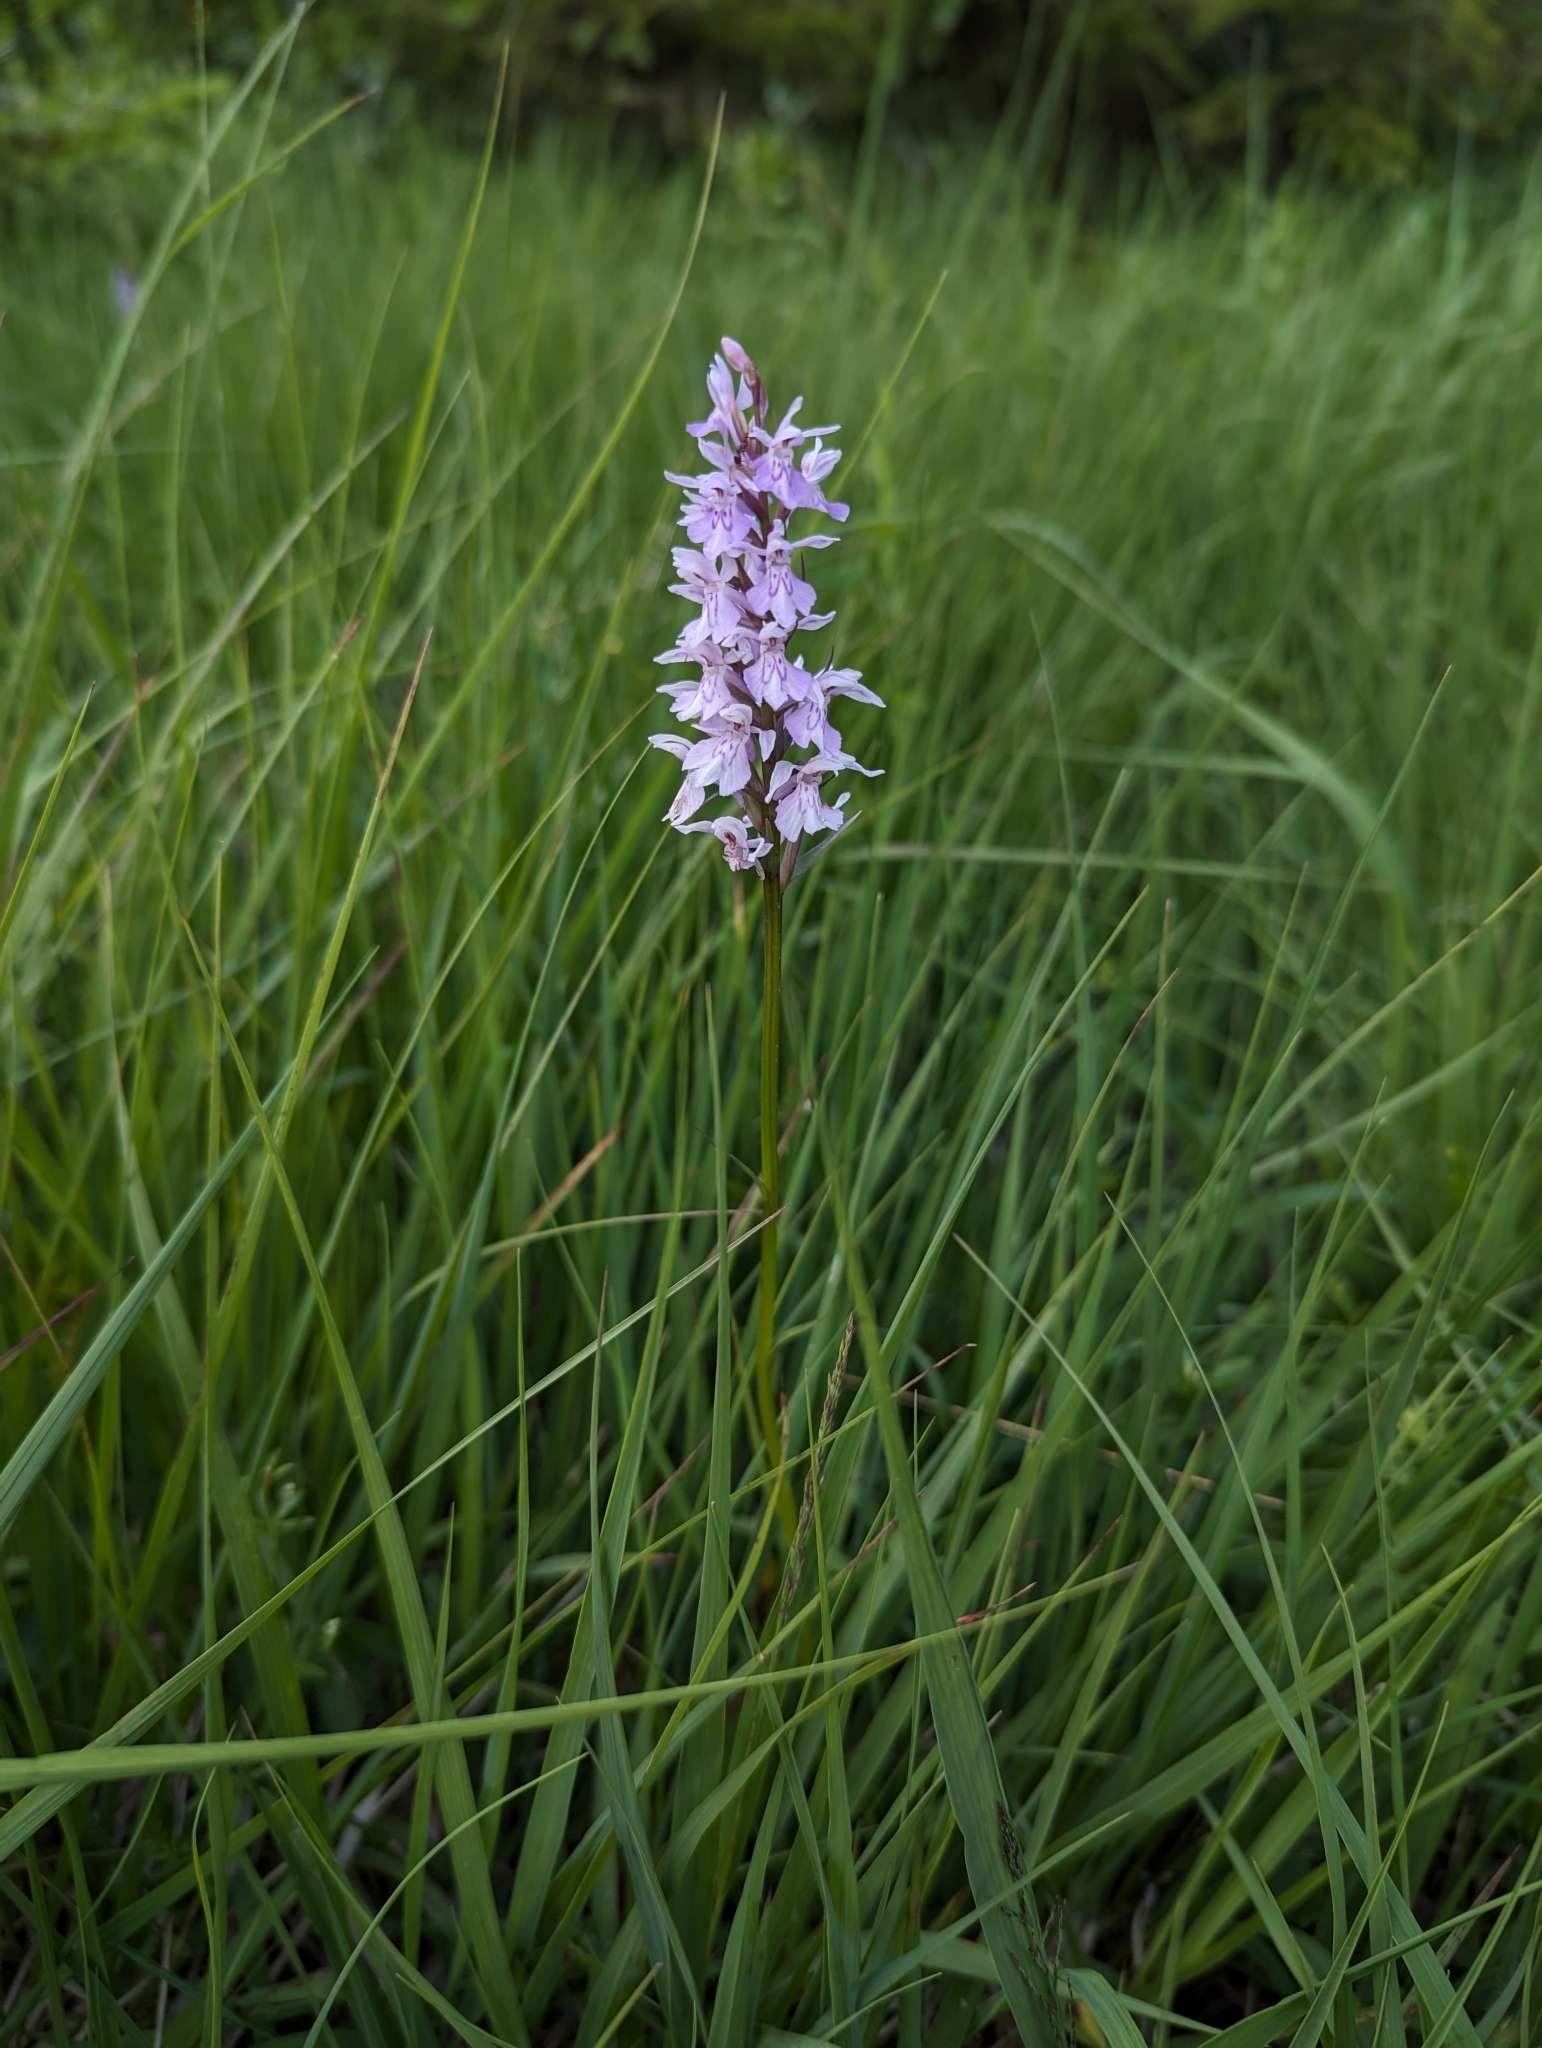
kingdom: Plantae
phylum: Tracheophyta
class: Liliopsida
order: Asparagales
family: Orchidaceae
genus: Dactylorhiza
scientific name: Dactylorhiza maculata
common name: Heath spotted-orchid
